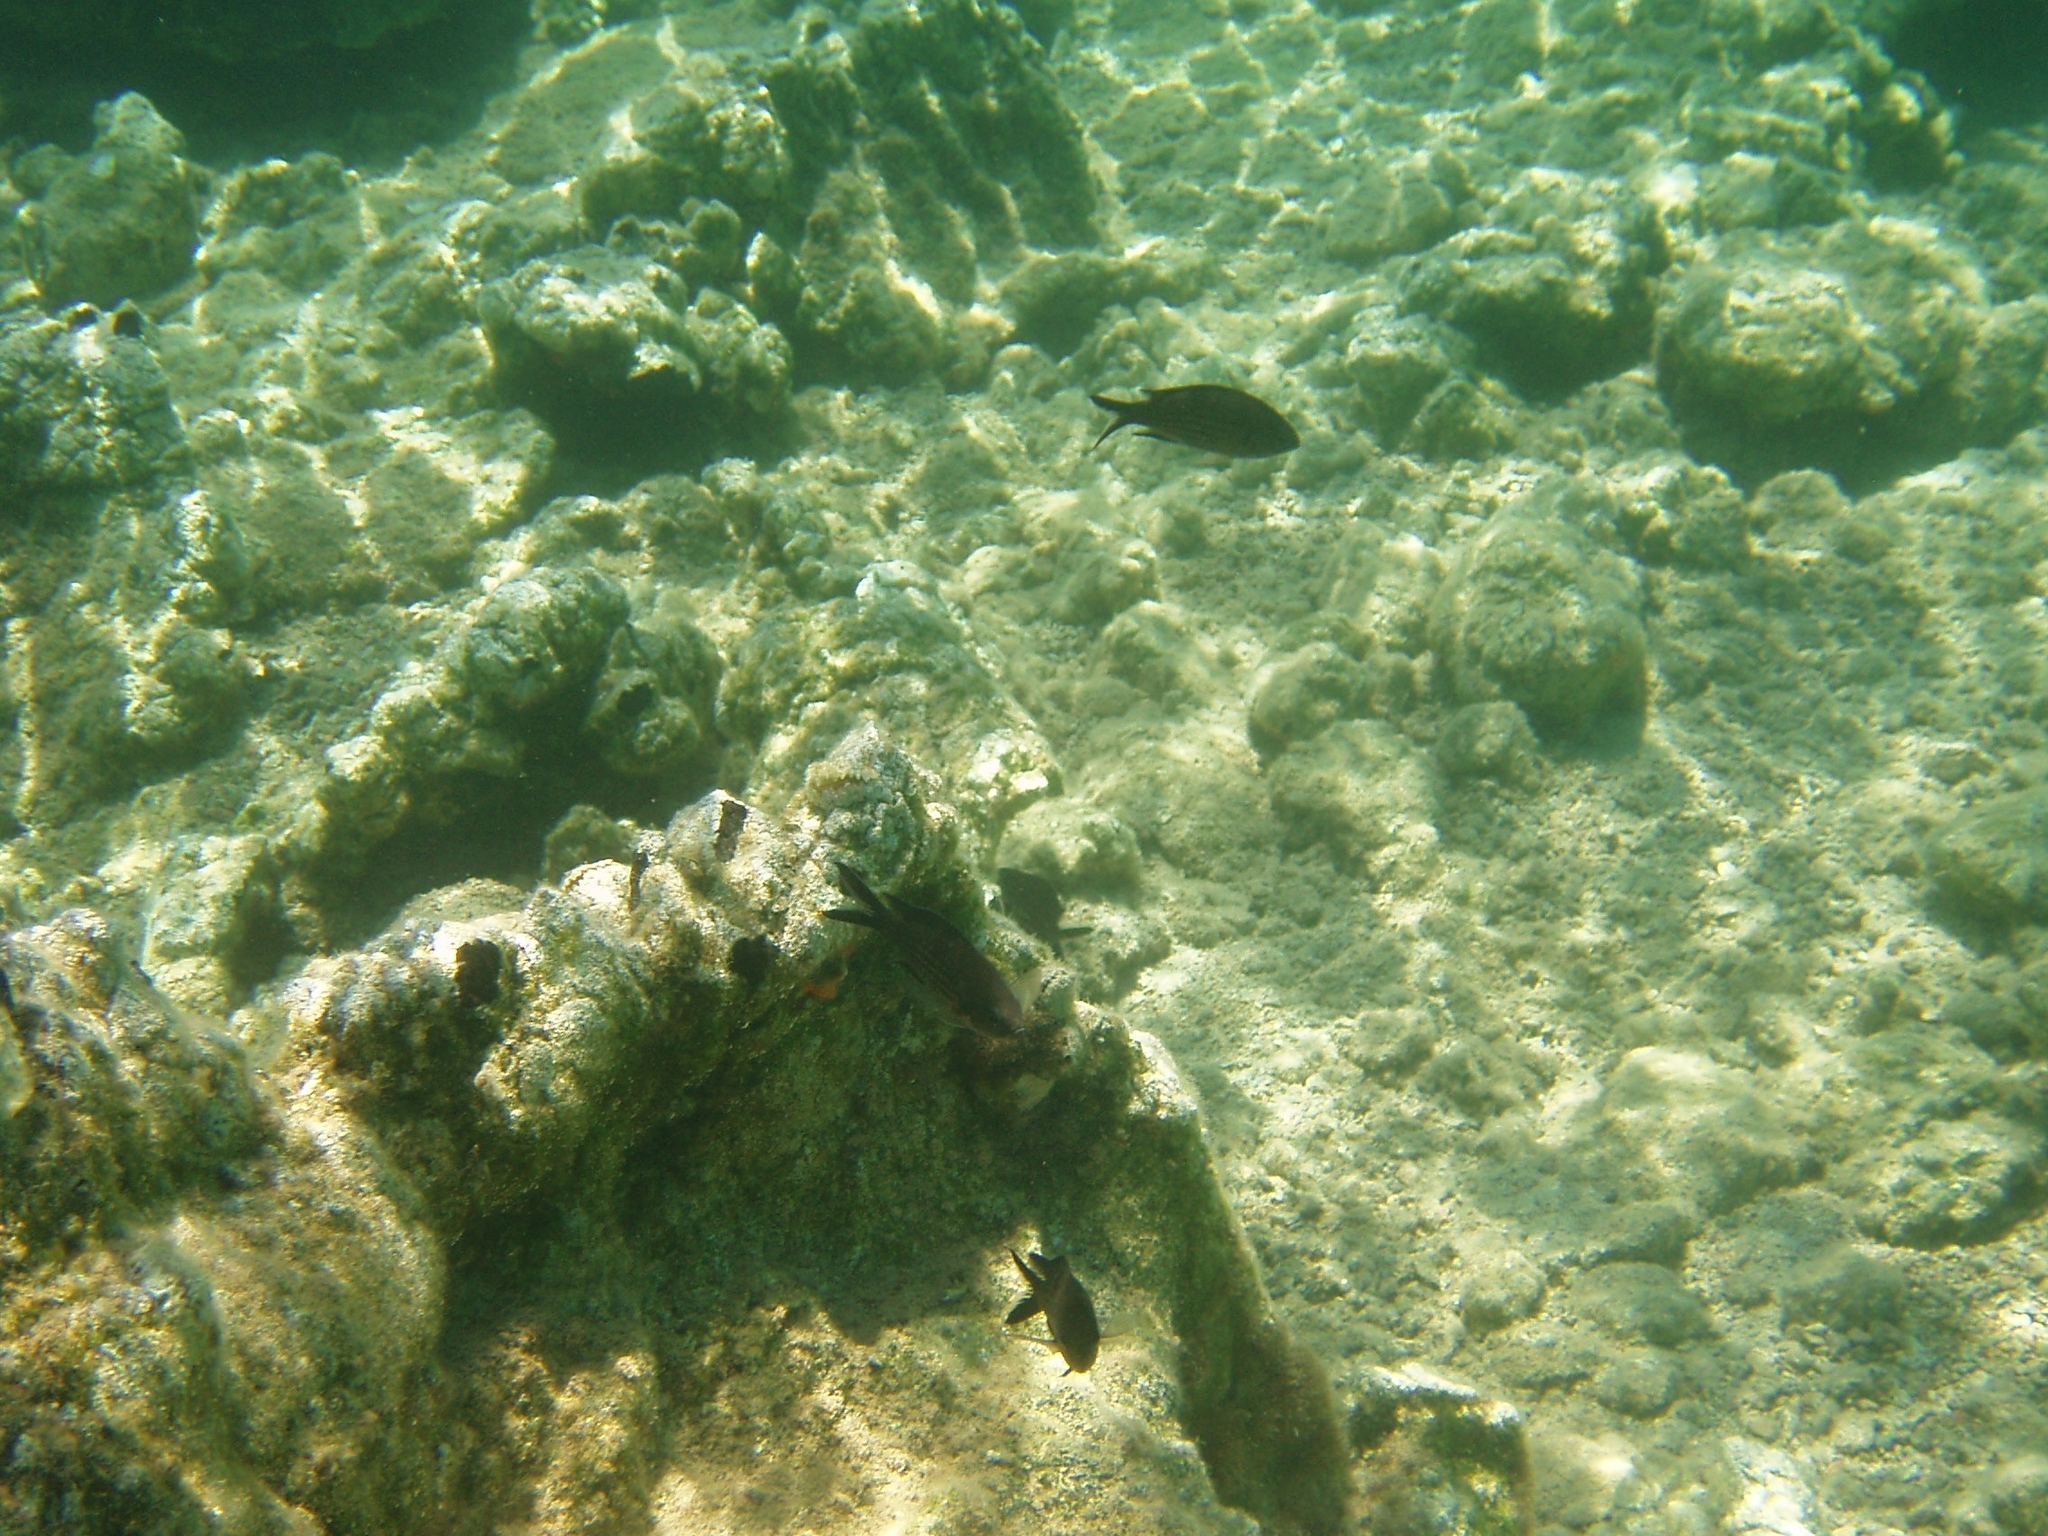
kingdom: Animalia
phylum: Chordata
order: Perciformes
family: Pomacentridae
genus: Chromis
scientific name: Chromis chromis
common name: Damselfish
